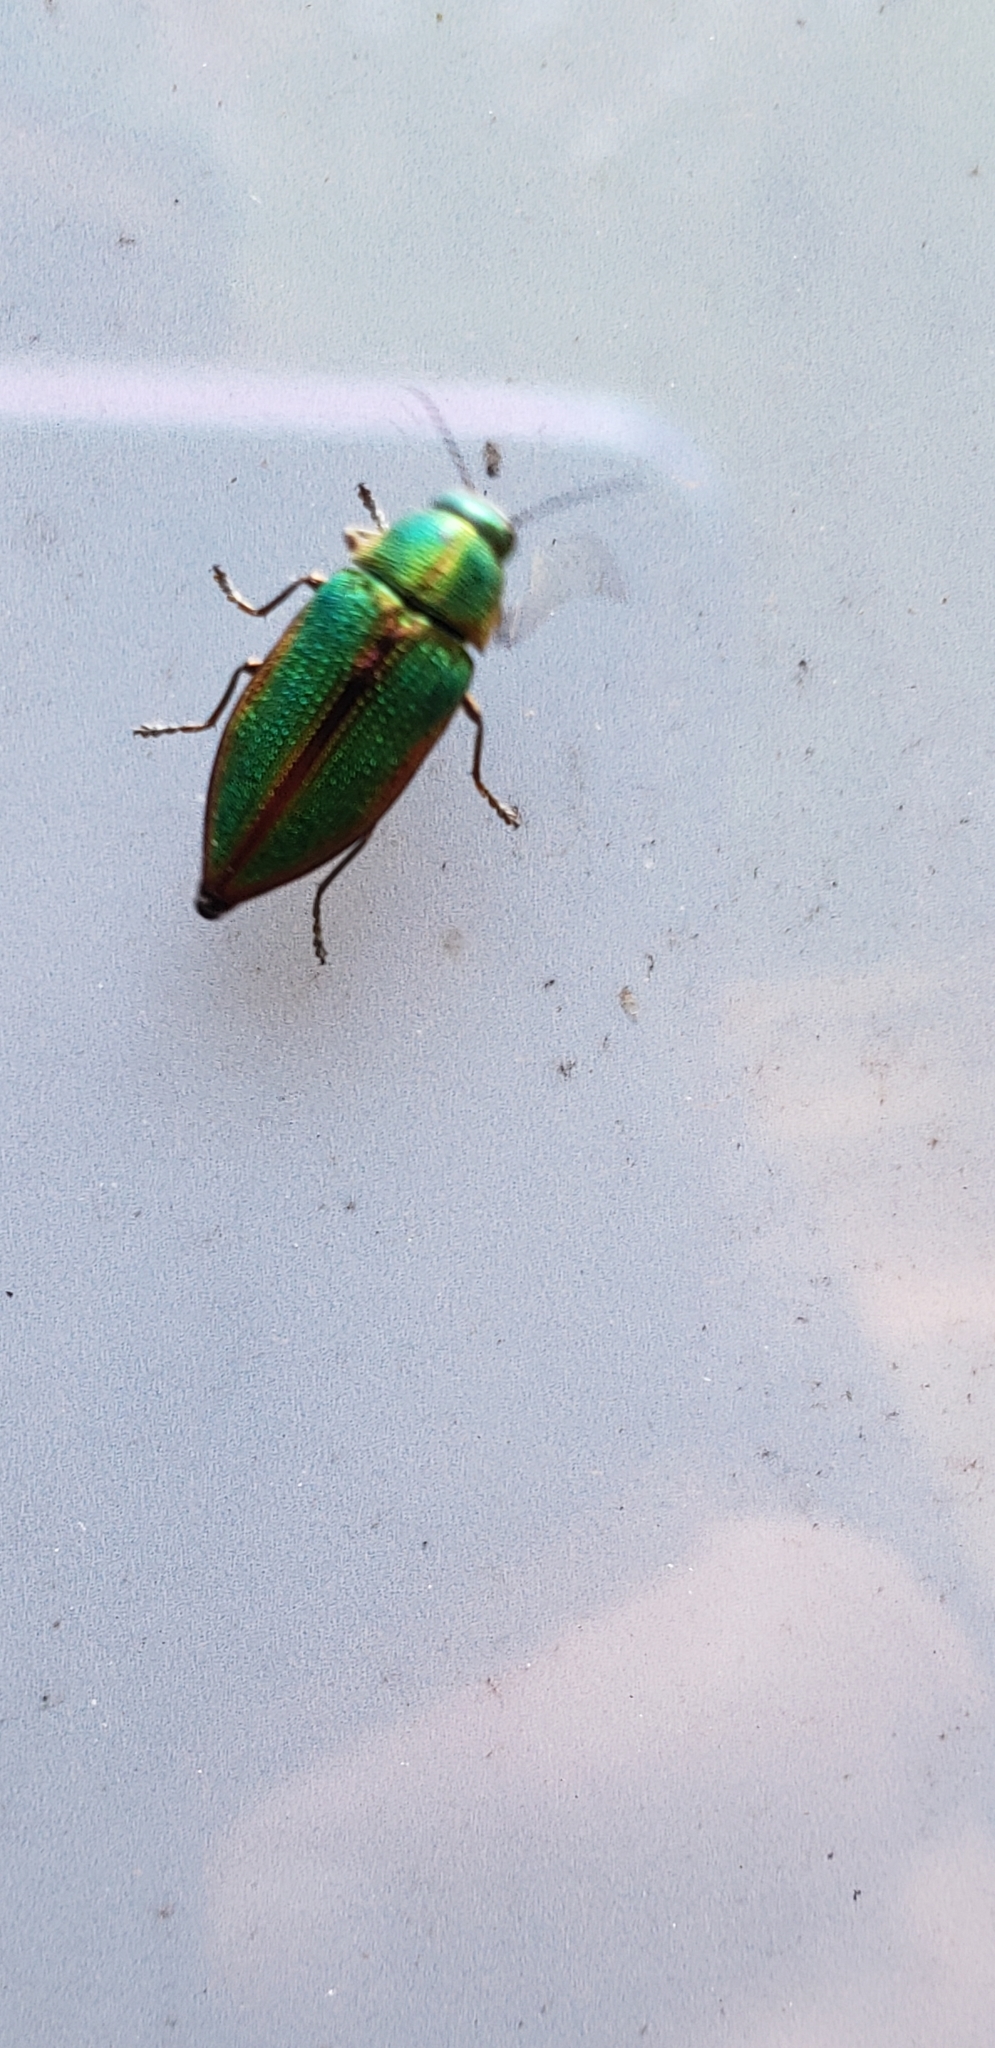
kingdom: Animalia
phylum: Arthropoda
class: Insecta
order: Coleoptera
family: Buprestidae
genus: Buprestis
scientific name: Buprestis salisburyensis
